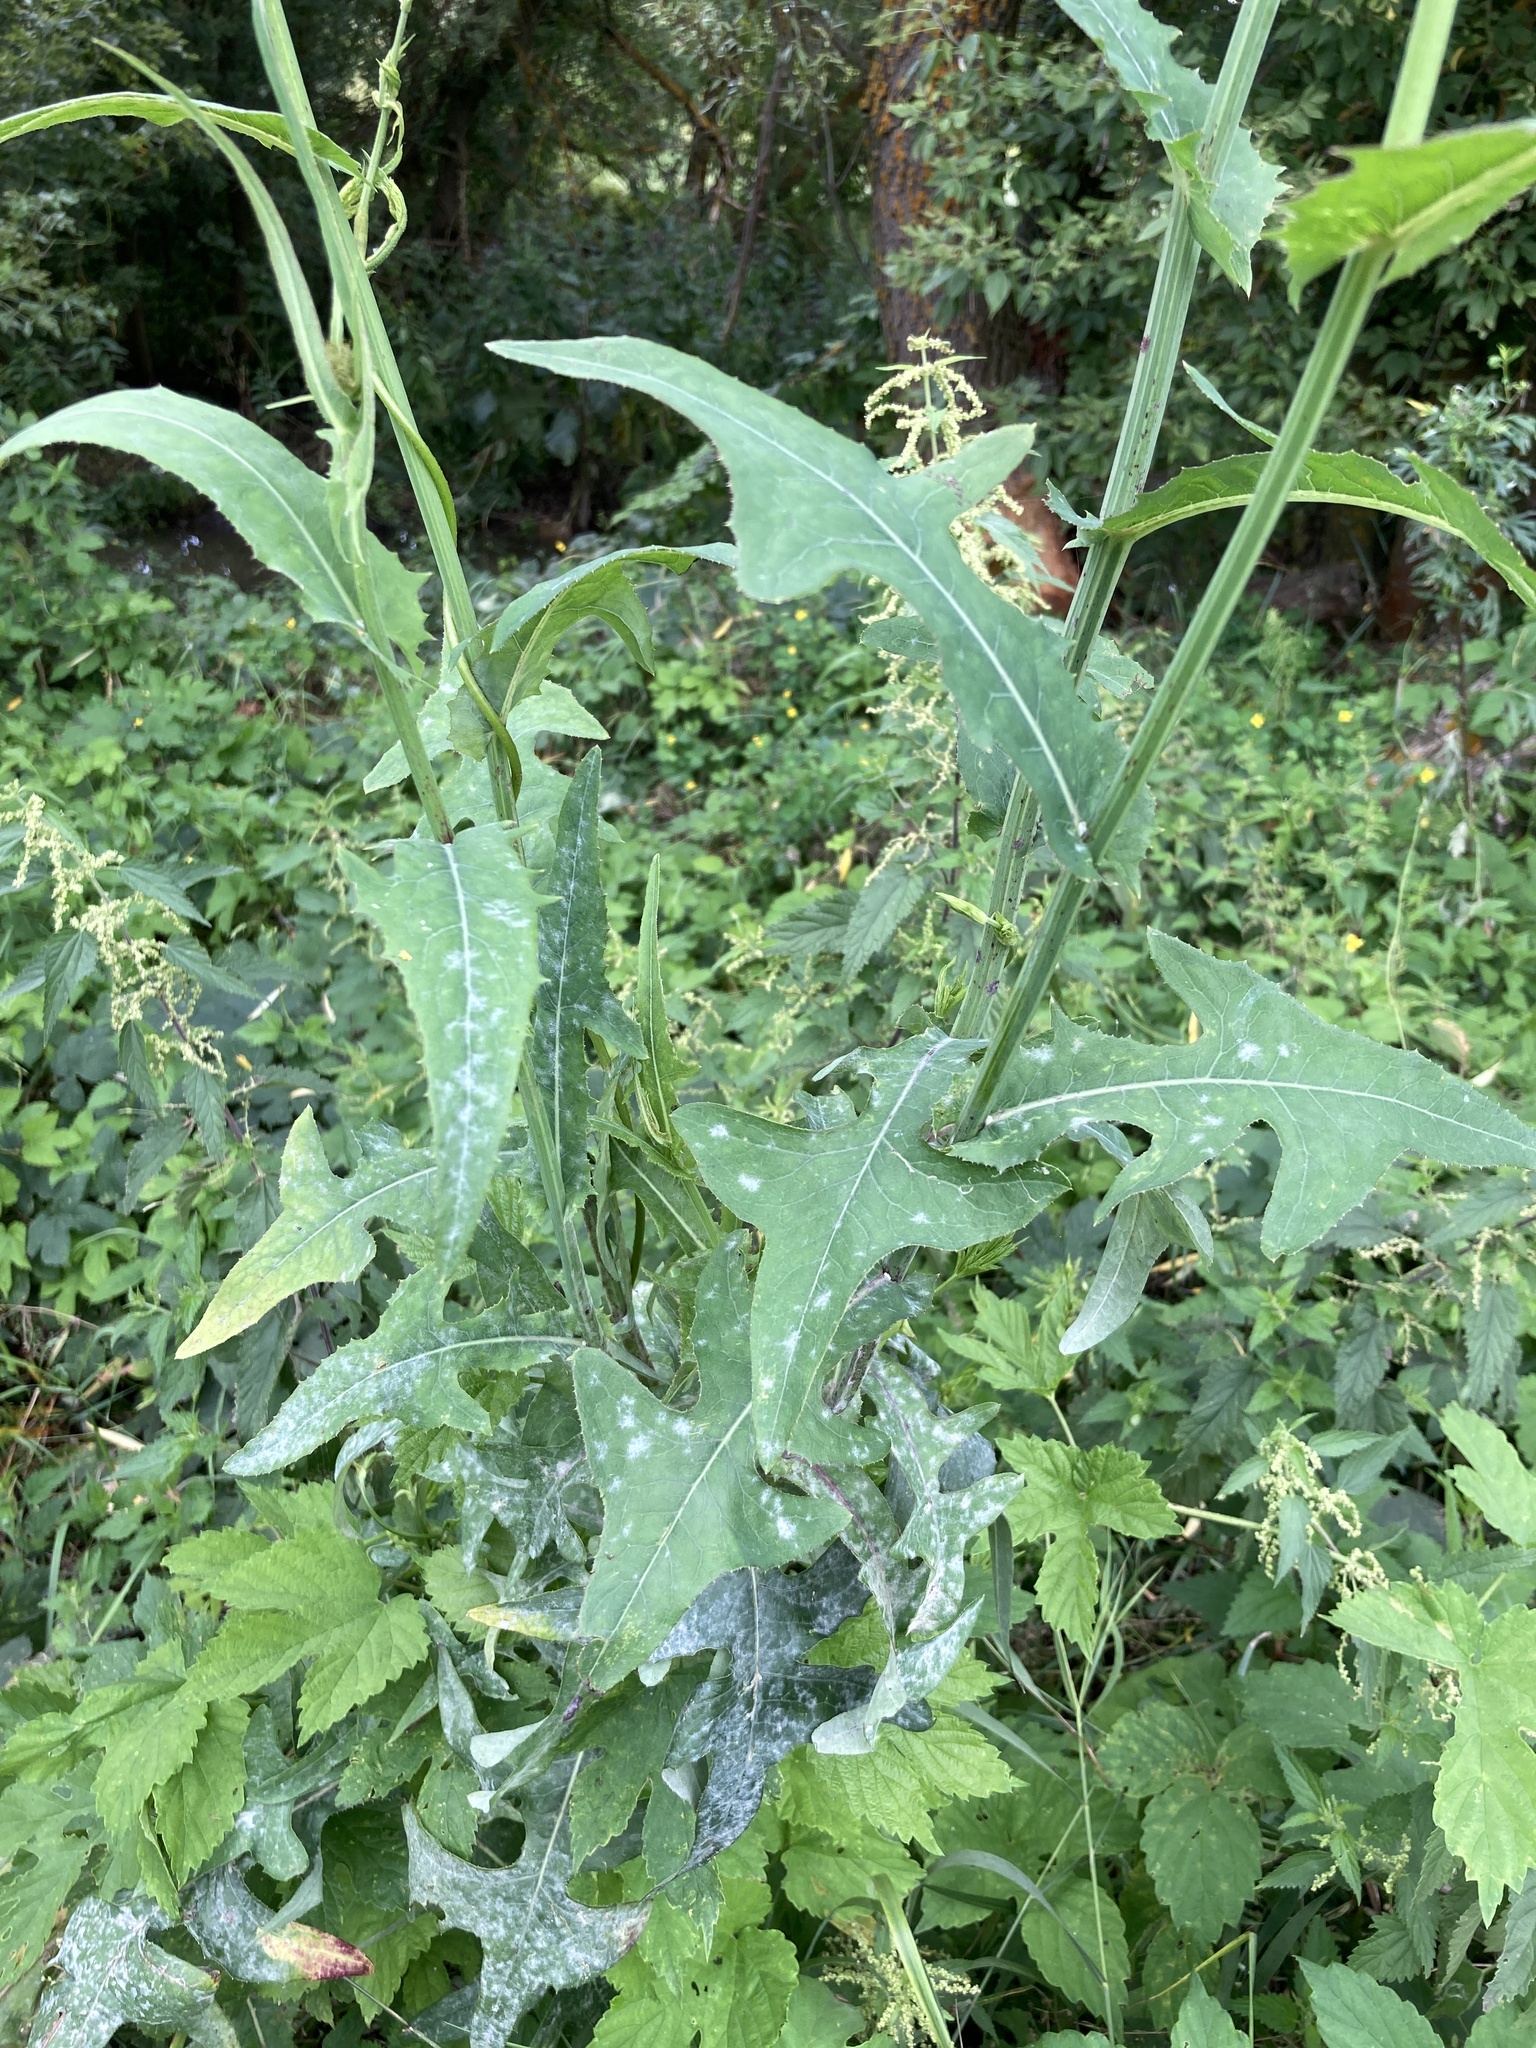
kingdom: Plantae
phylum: Tracheophyta
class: Magnoliopsida
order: Asterales
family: Asteraceae
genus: Sonchus
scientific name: Sonchus palustris
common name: Marsh sow-thistle
